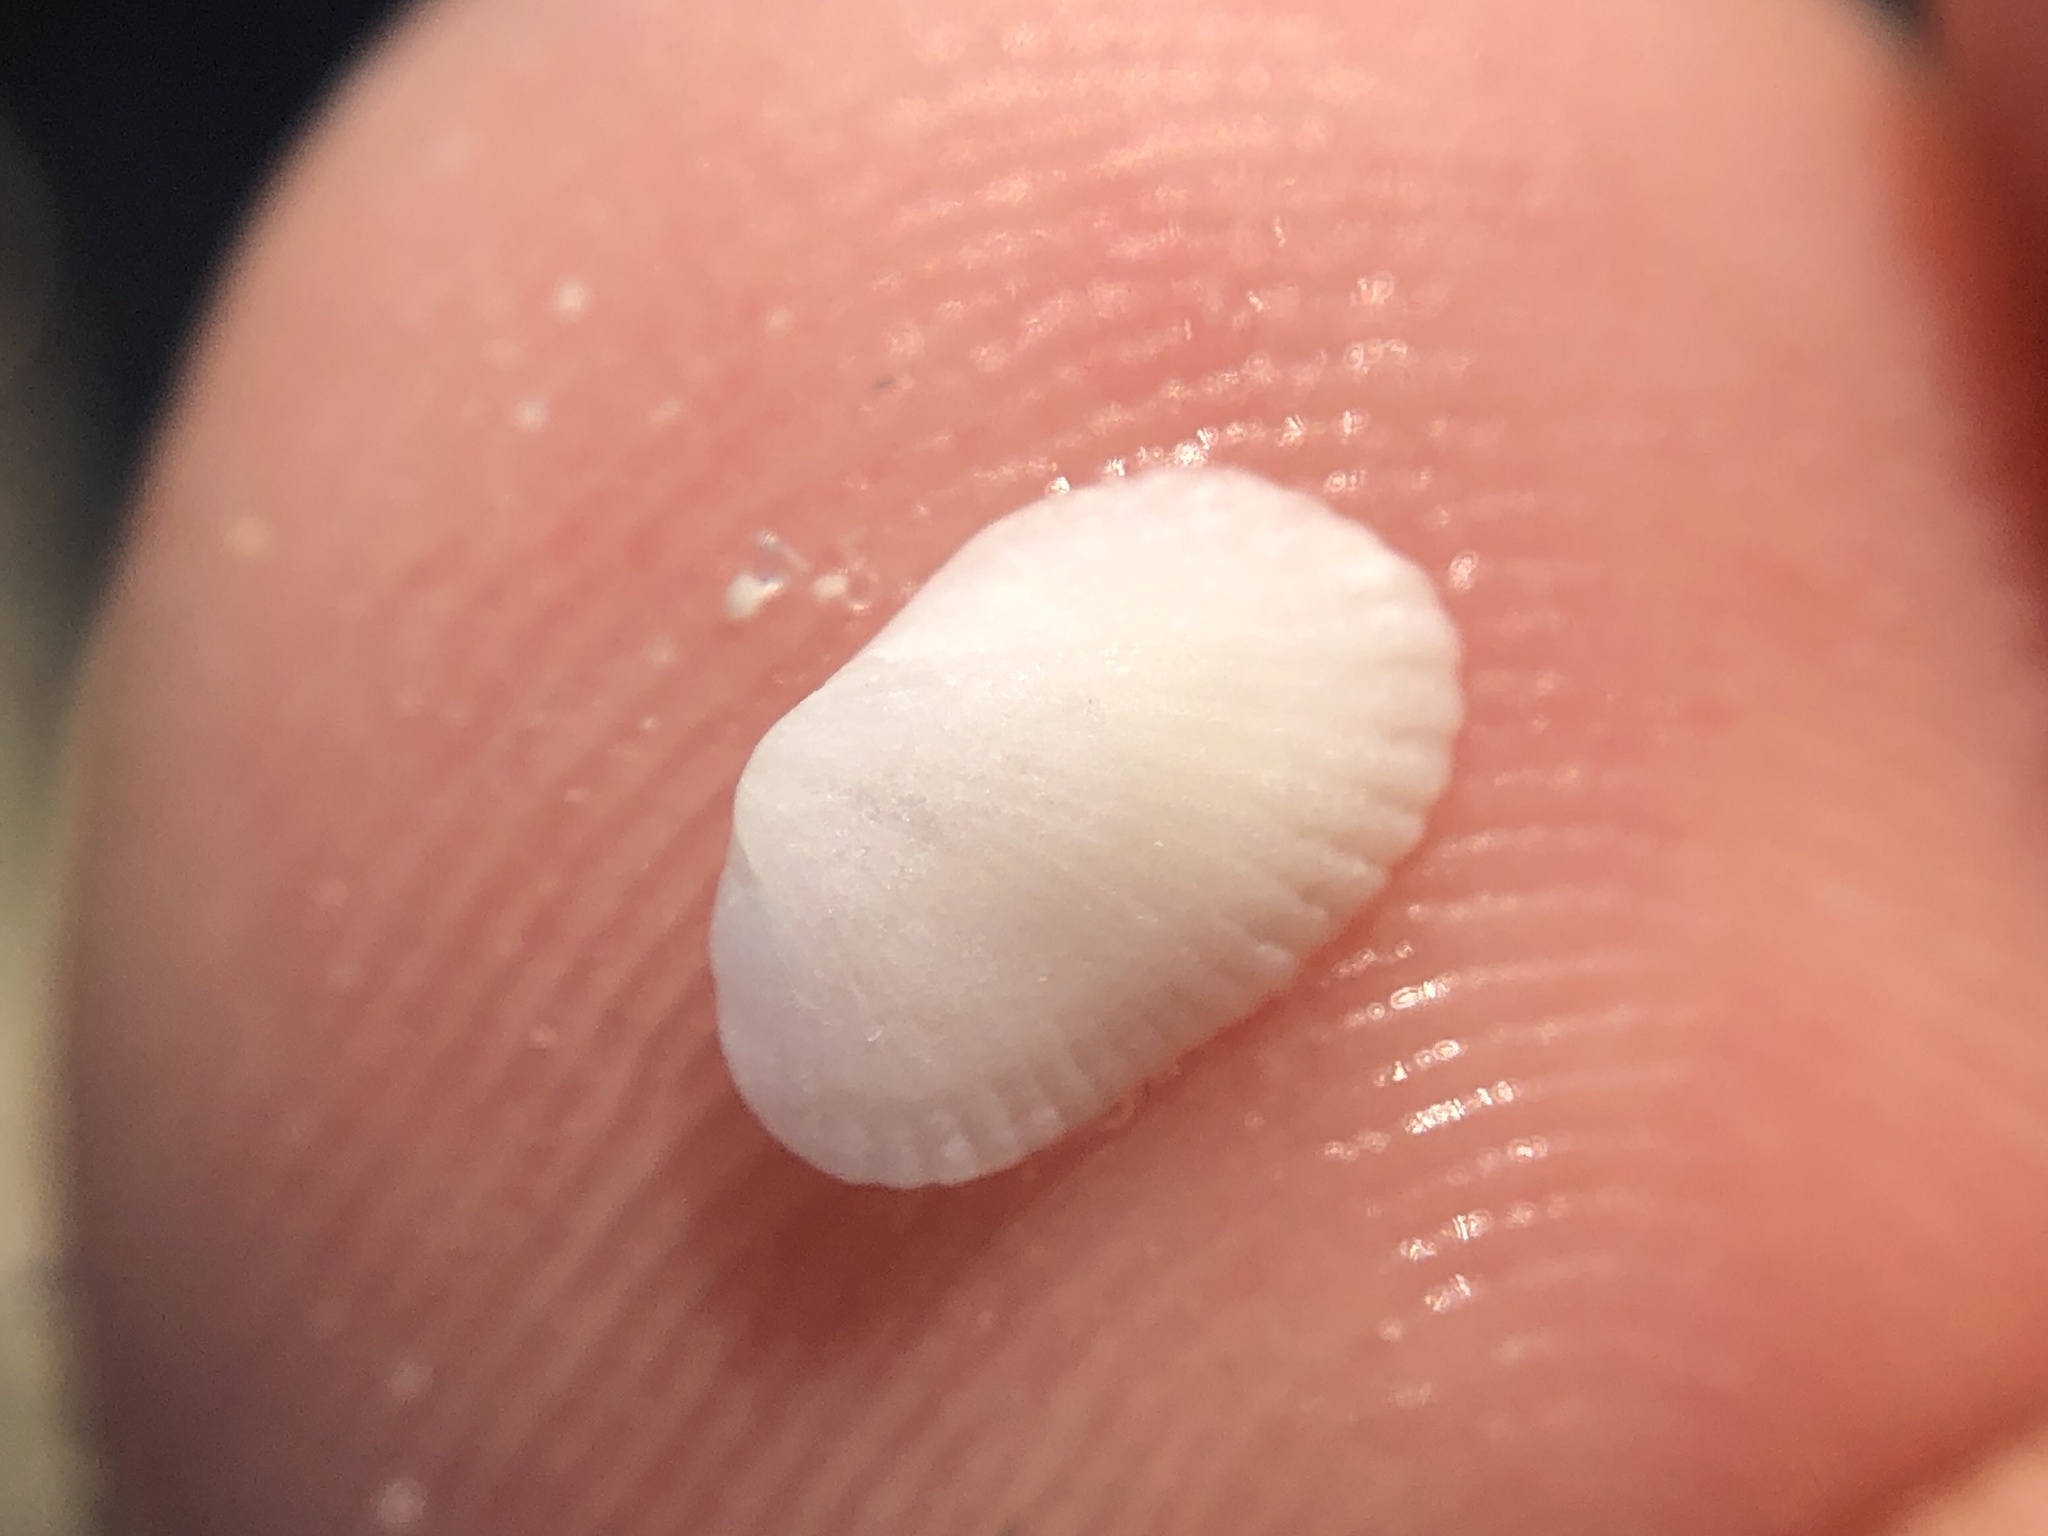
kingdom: Animalia
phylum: Mollusca
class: Bivalvia
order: Arcida
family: Arcidae
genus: Anadara
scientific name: Anadara transversa
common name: Transverse ark
